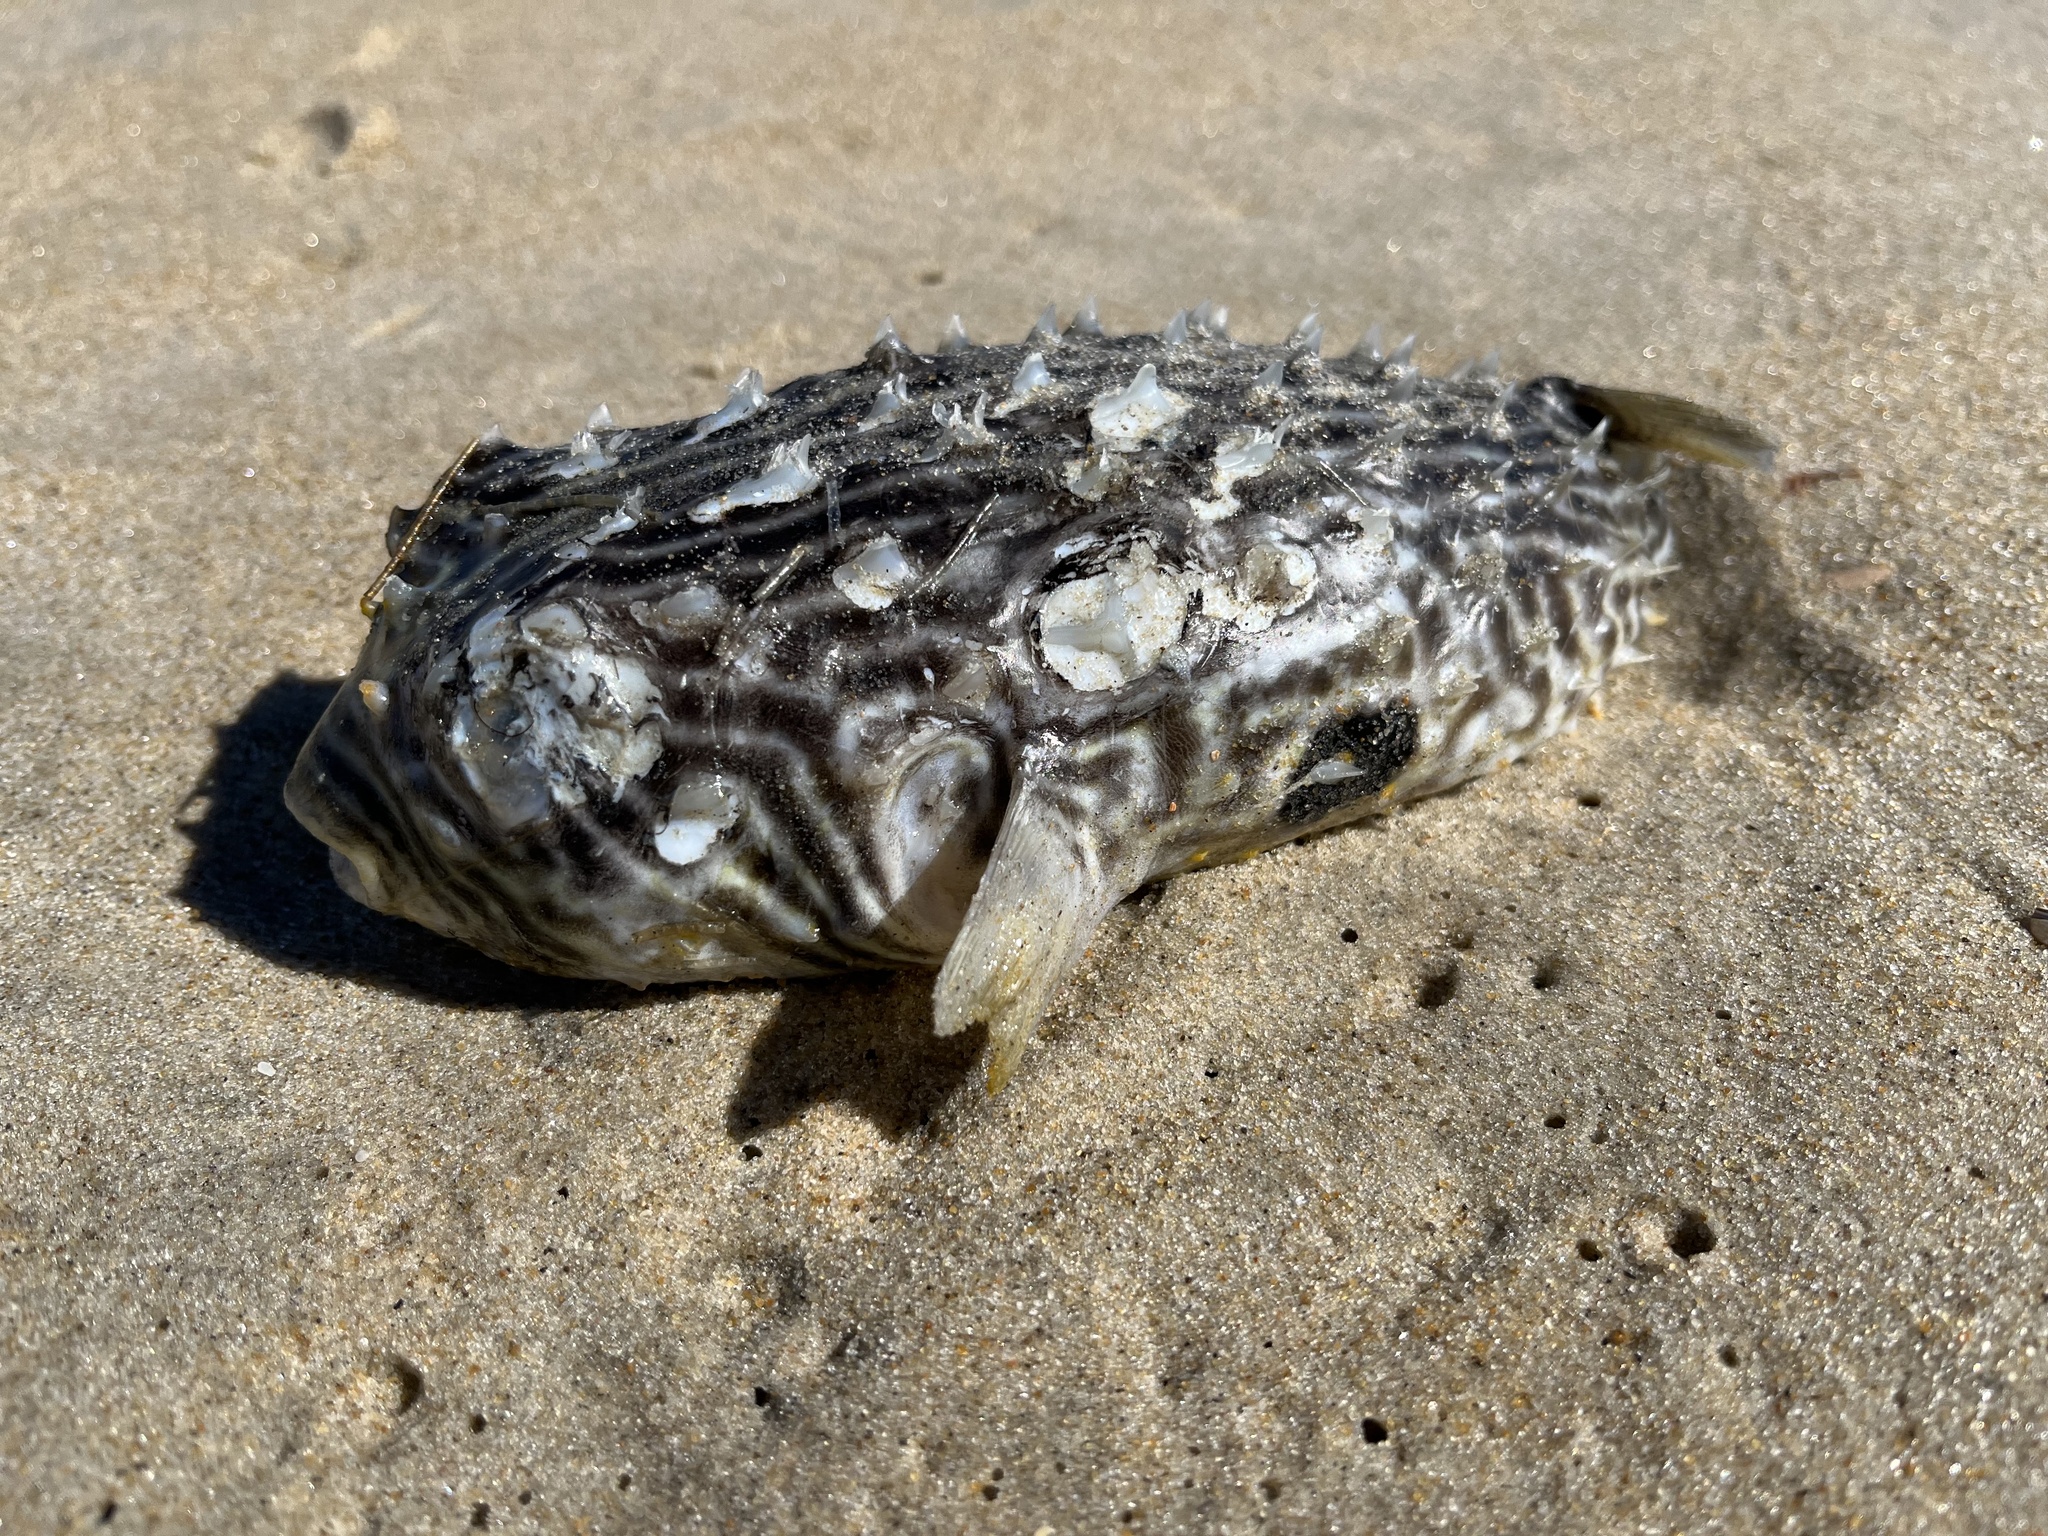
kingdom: Animalia
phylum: Chordata
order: Tetraodontiformes
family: Diodontidae
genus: Chilomycterus
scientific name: Chilomycterus schoepfii
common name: Striped burrfish
